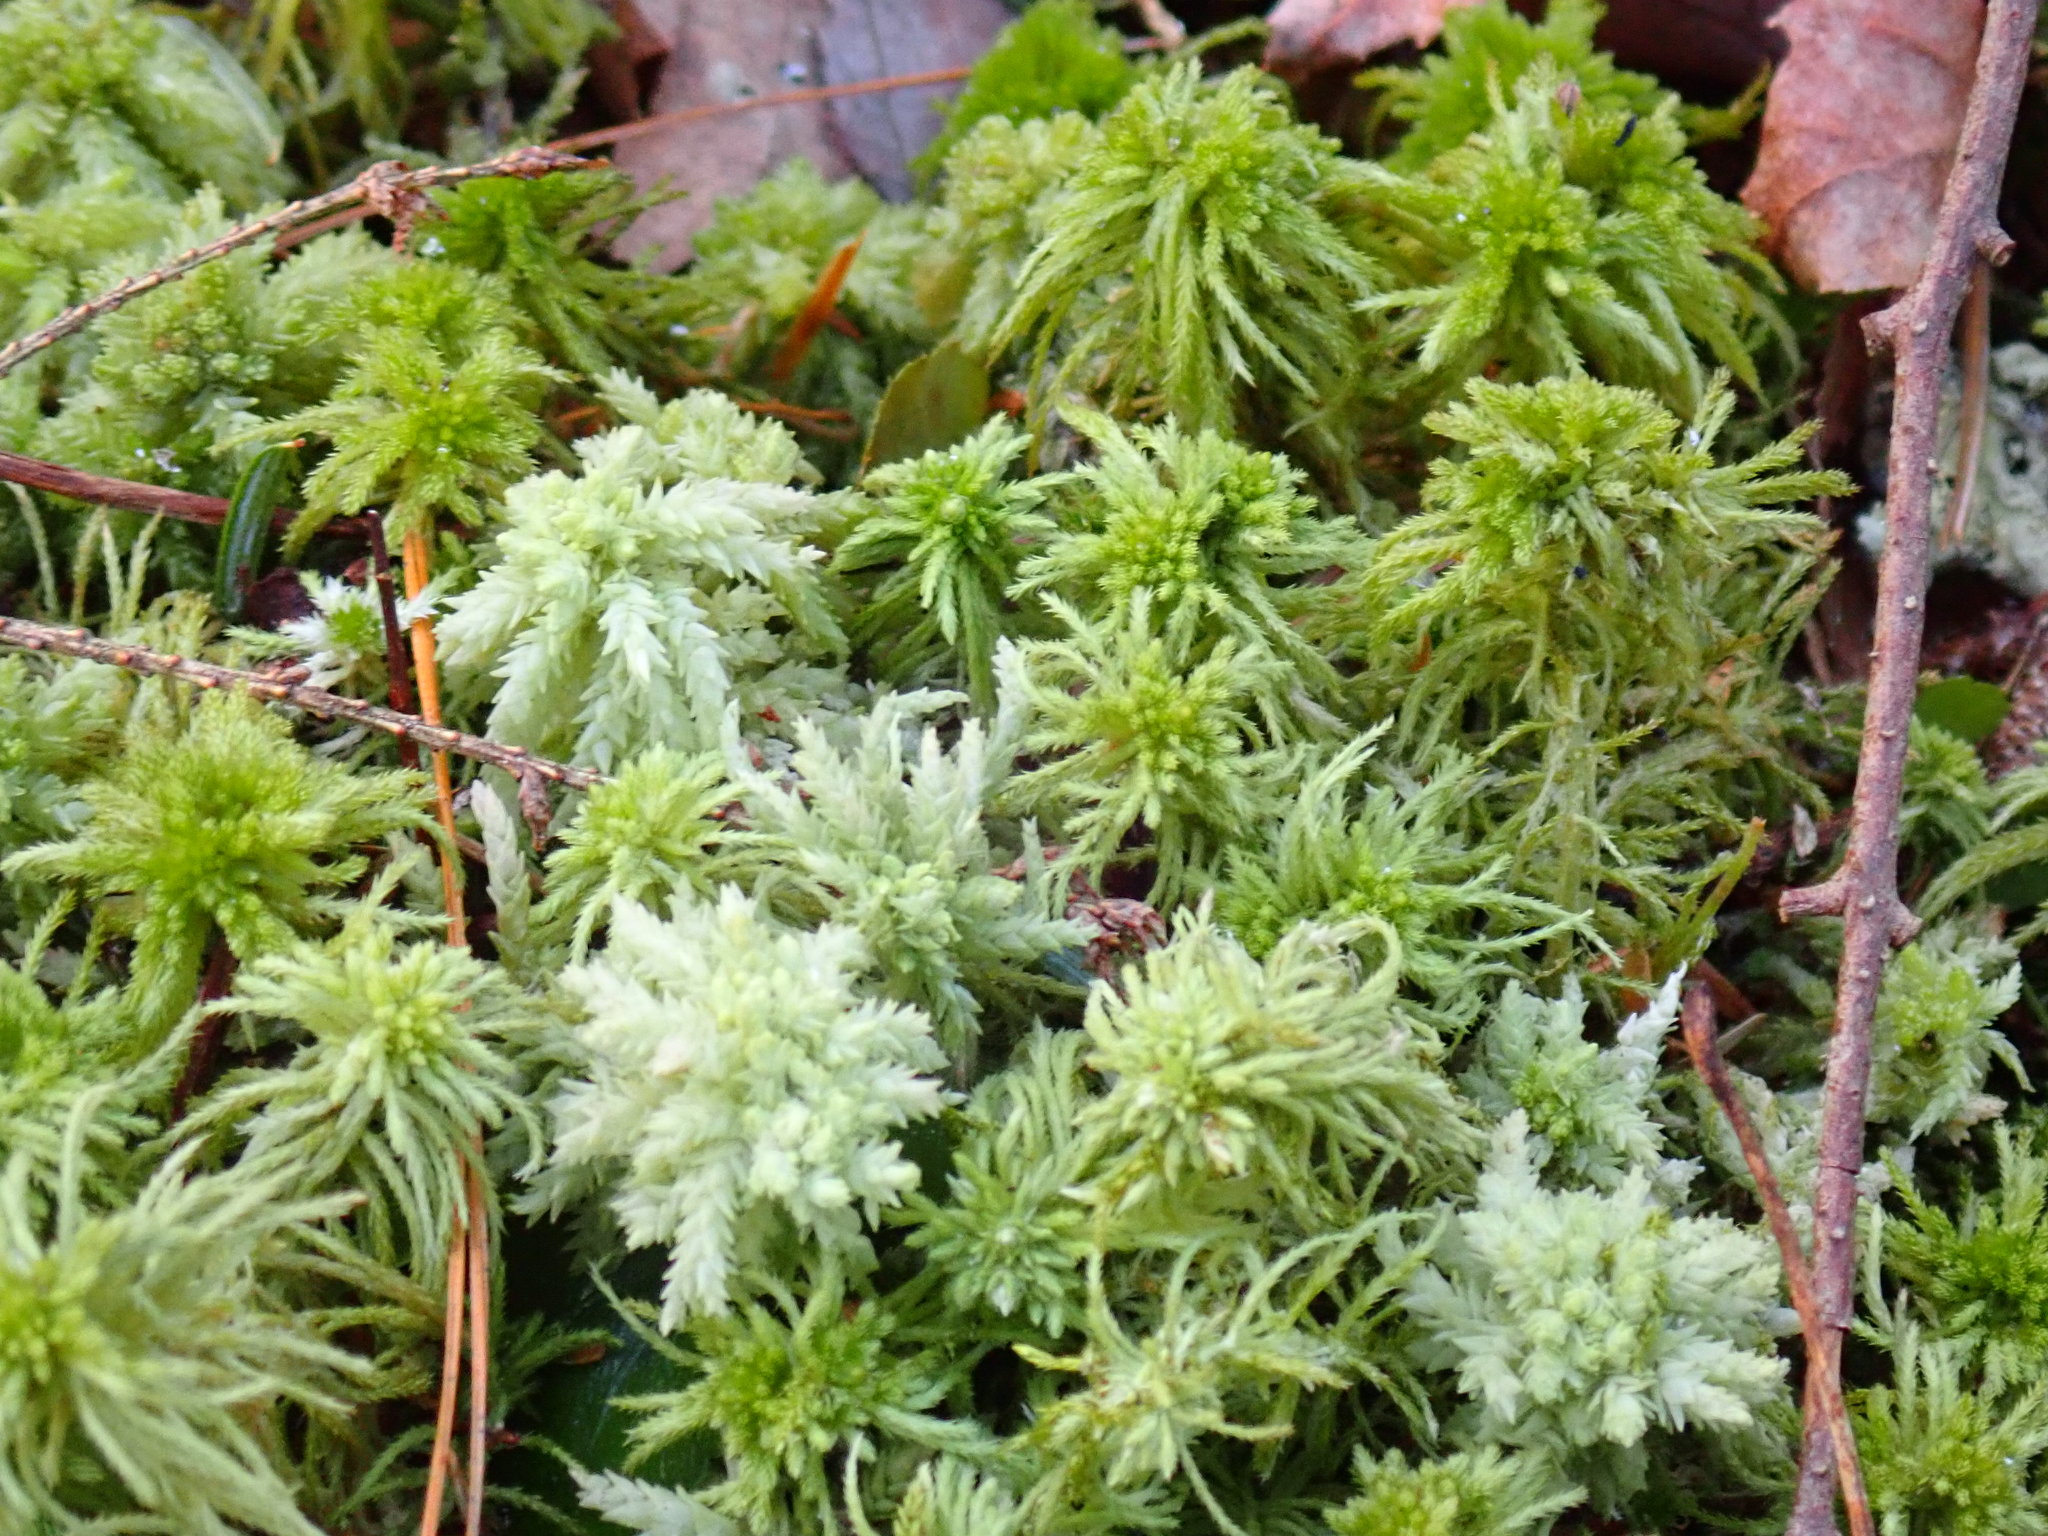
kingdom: Plantae
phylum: Bryophyta
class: Sphagnopsida
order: Sphagnales
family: Sphagnaceae
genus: Sphagnum
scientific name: Sphagnum
